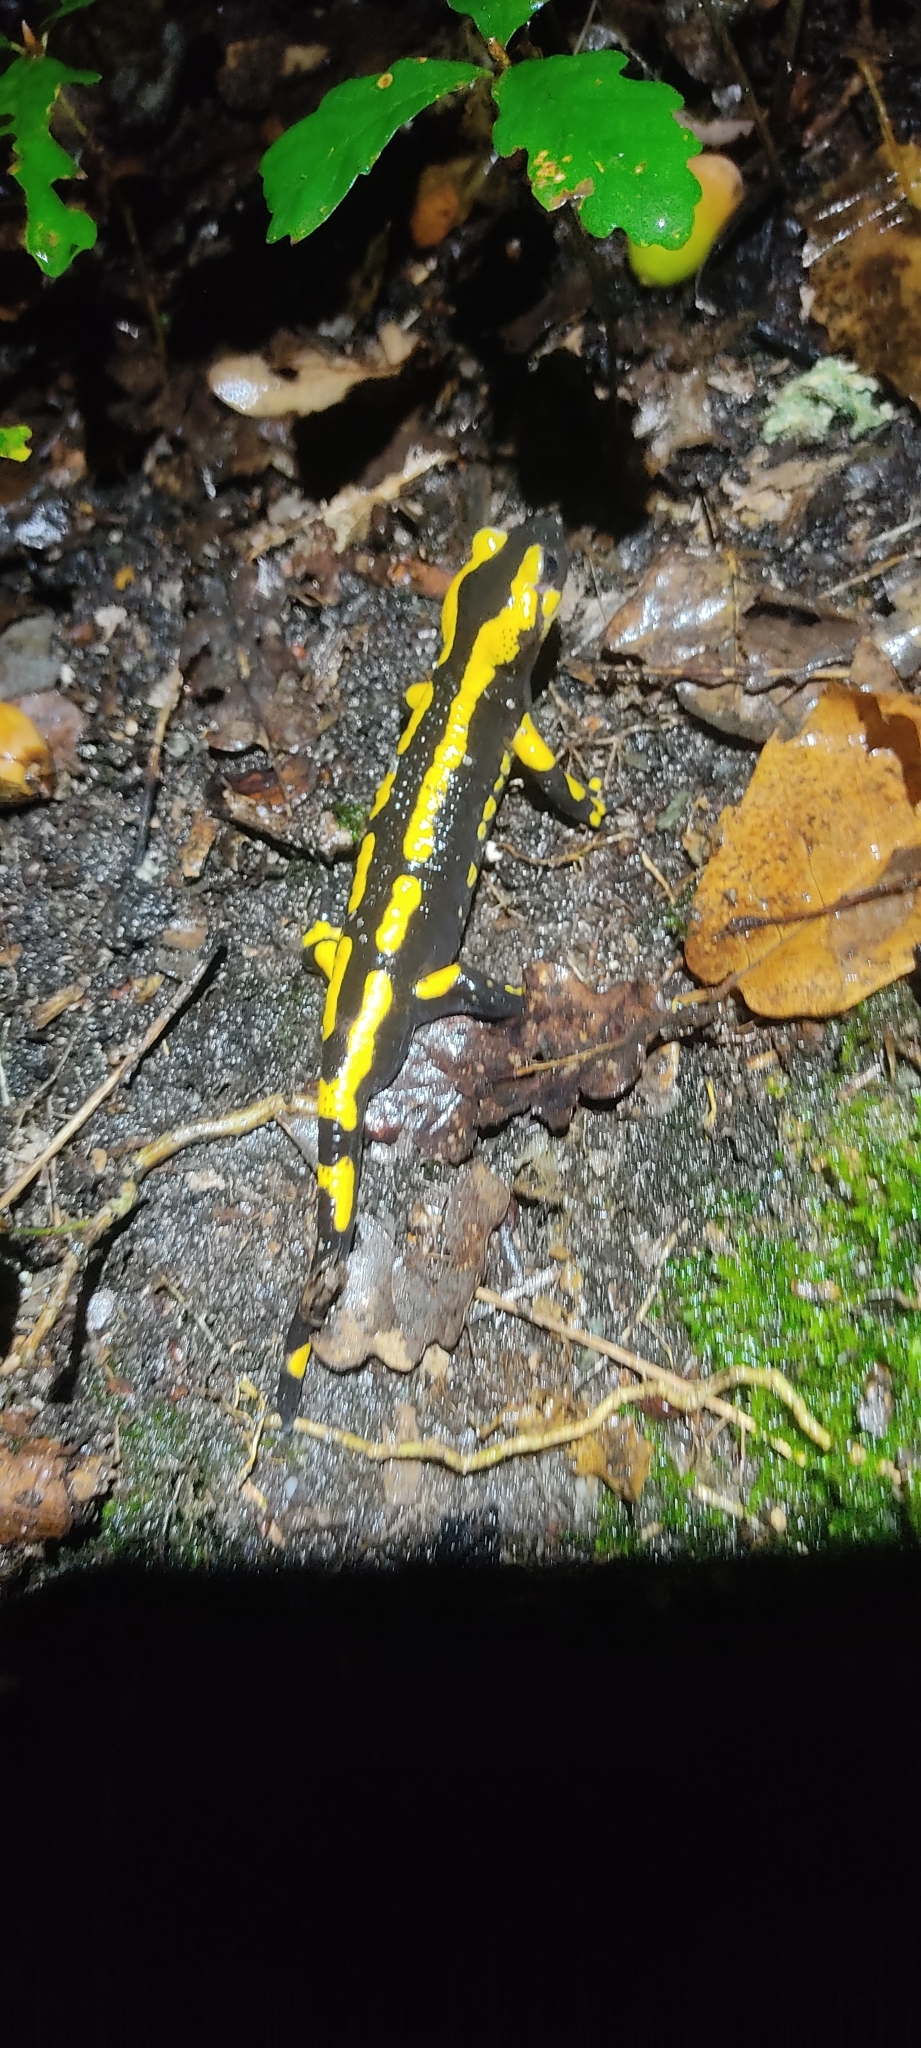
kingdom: Animalia
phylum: Chordata
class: Amphibia
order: Caudata
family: Salamandridae
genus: Salamandra
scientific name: Salamandra salamandra
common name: Fire salamander
